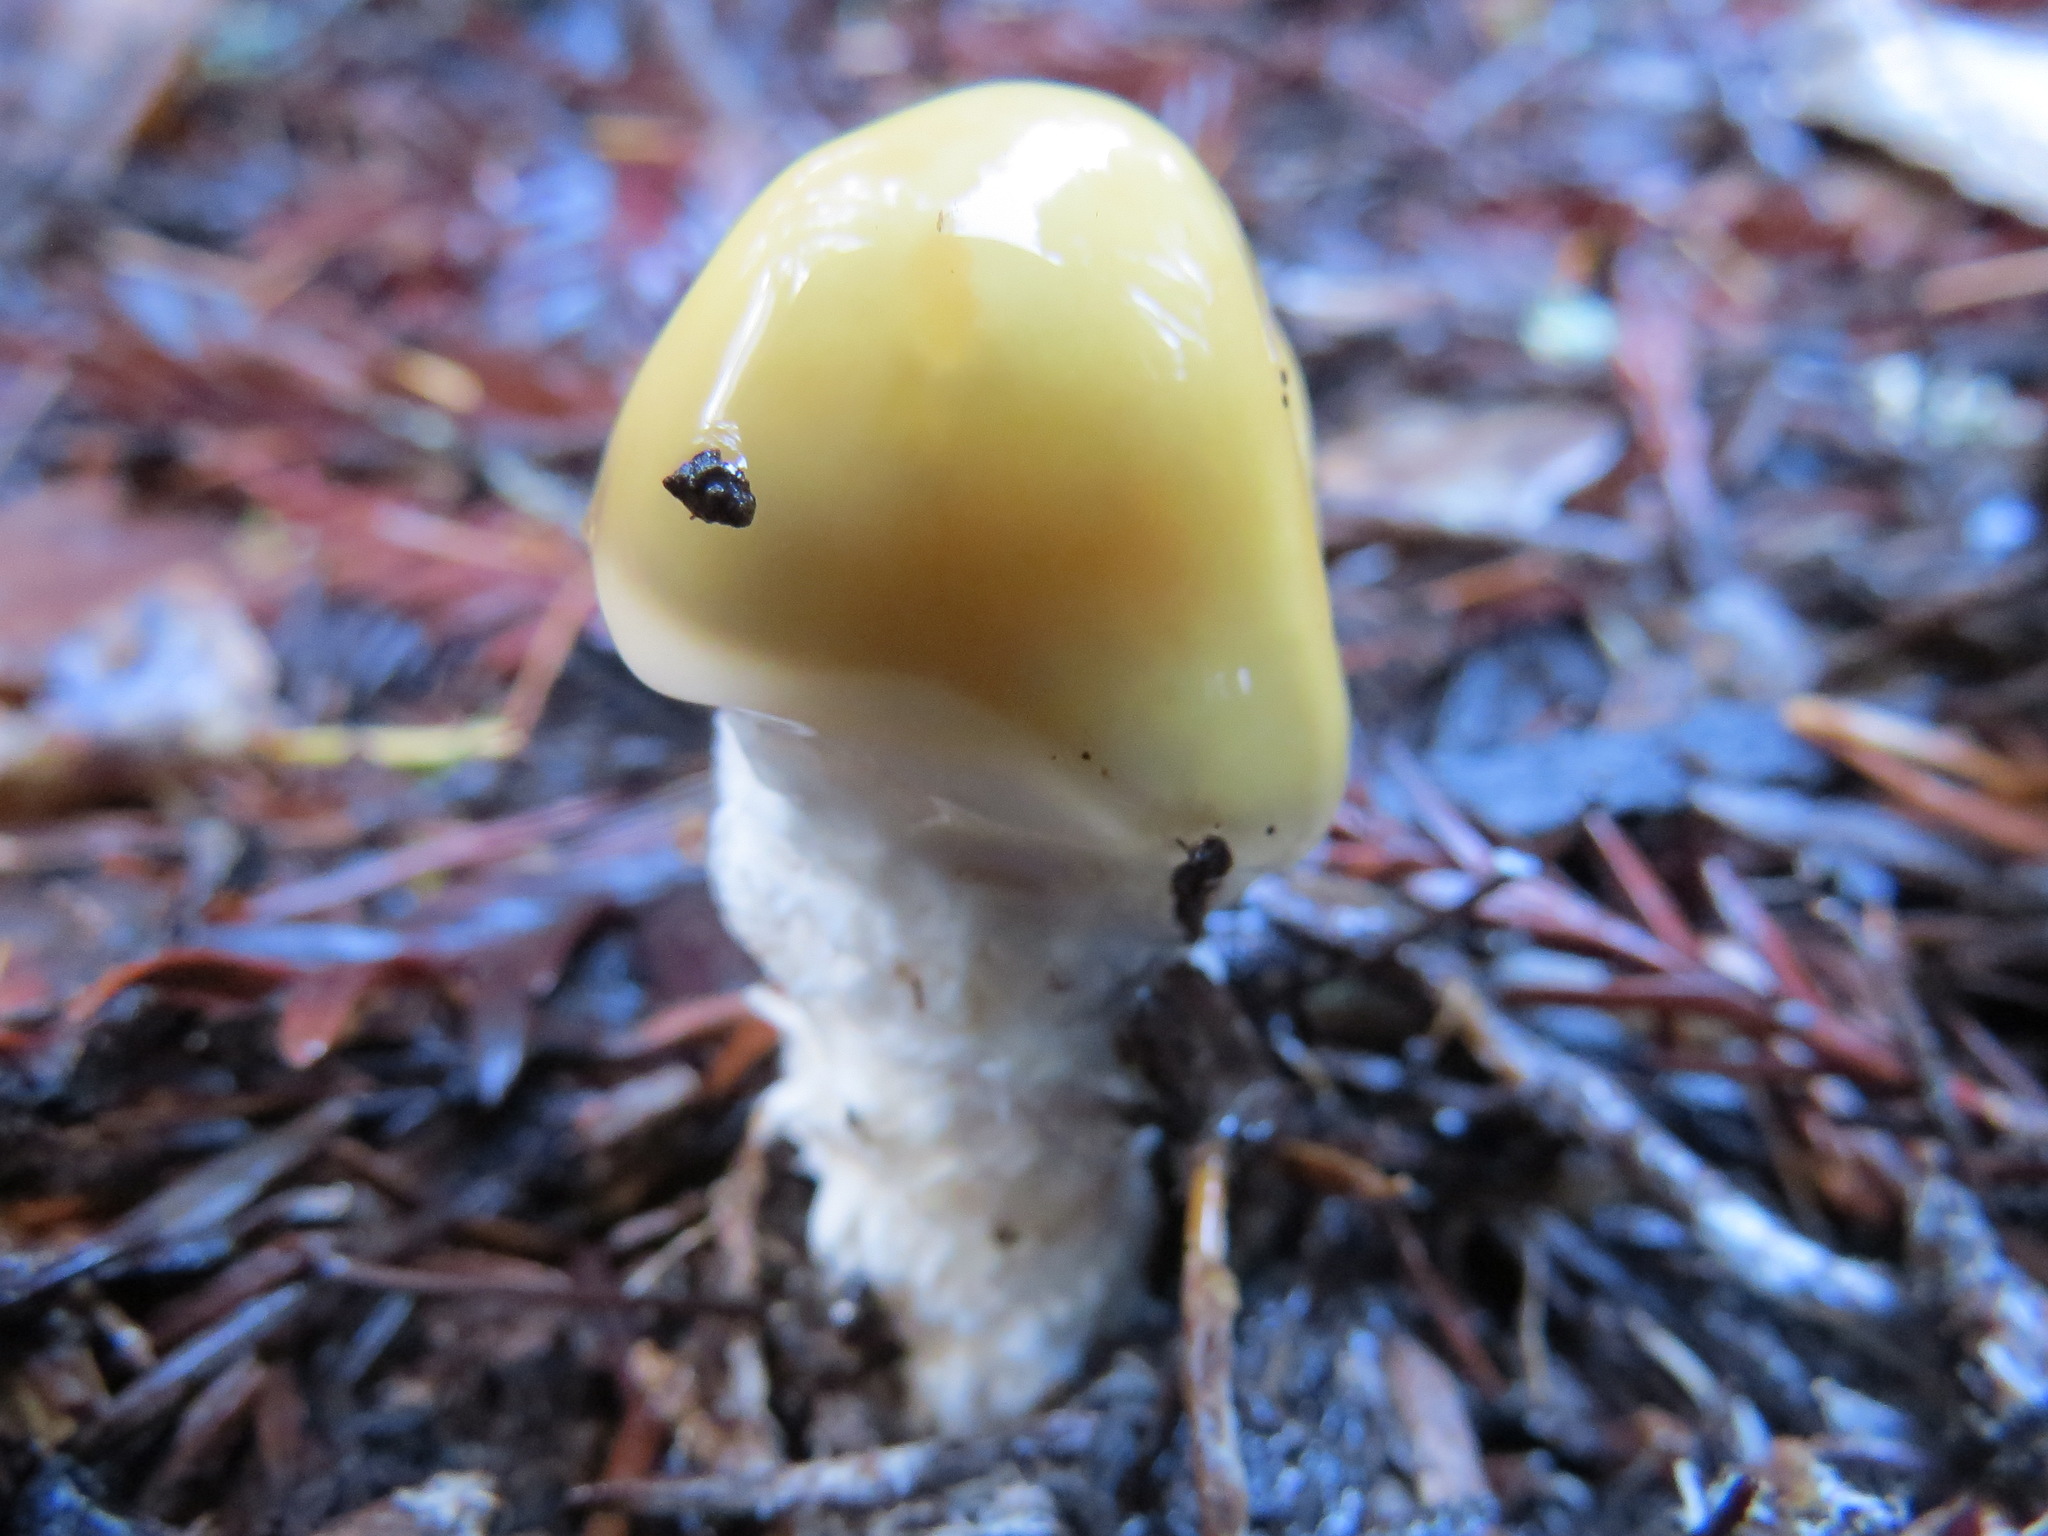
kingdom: Fungi
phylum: Basidiomycota
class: Agaricomycetes
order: Agaricales
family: Strophariaceae
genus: Stropharia
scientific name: Stropharia ambigua
